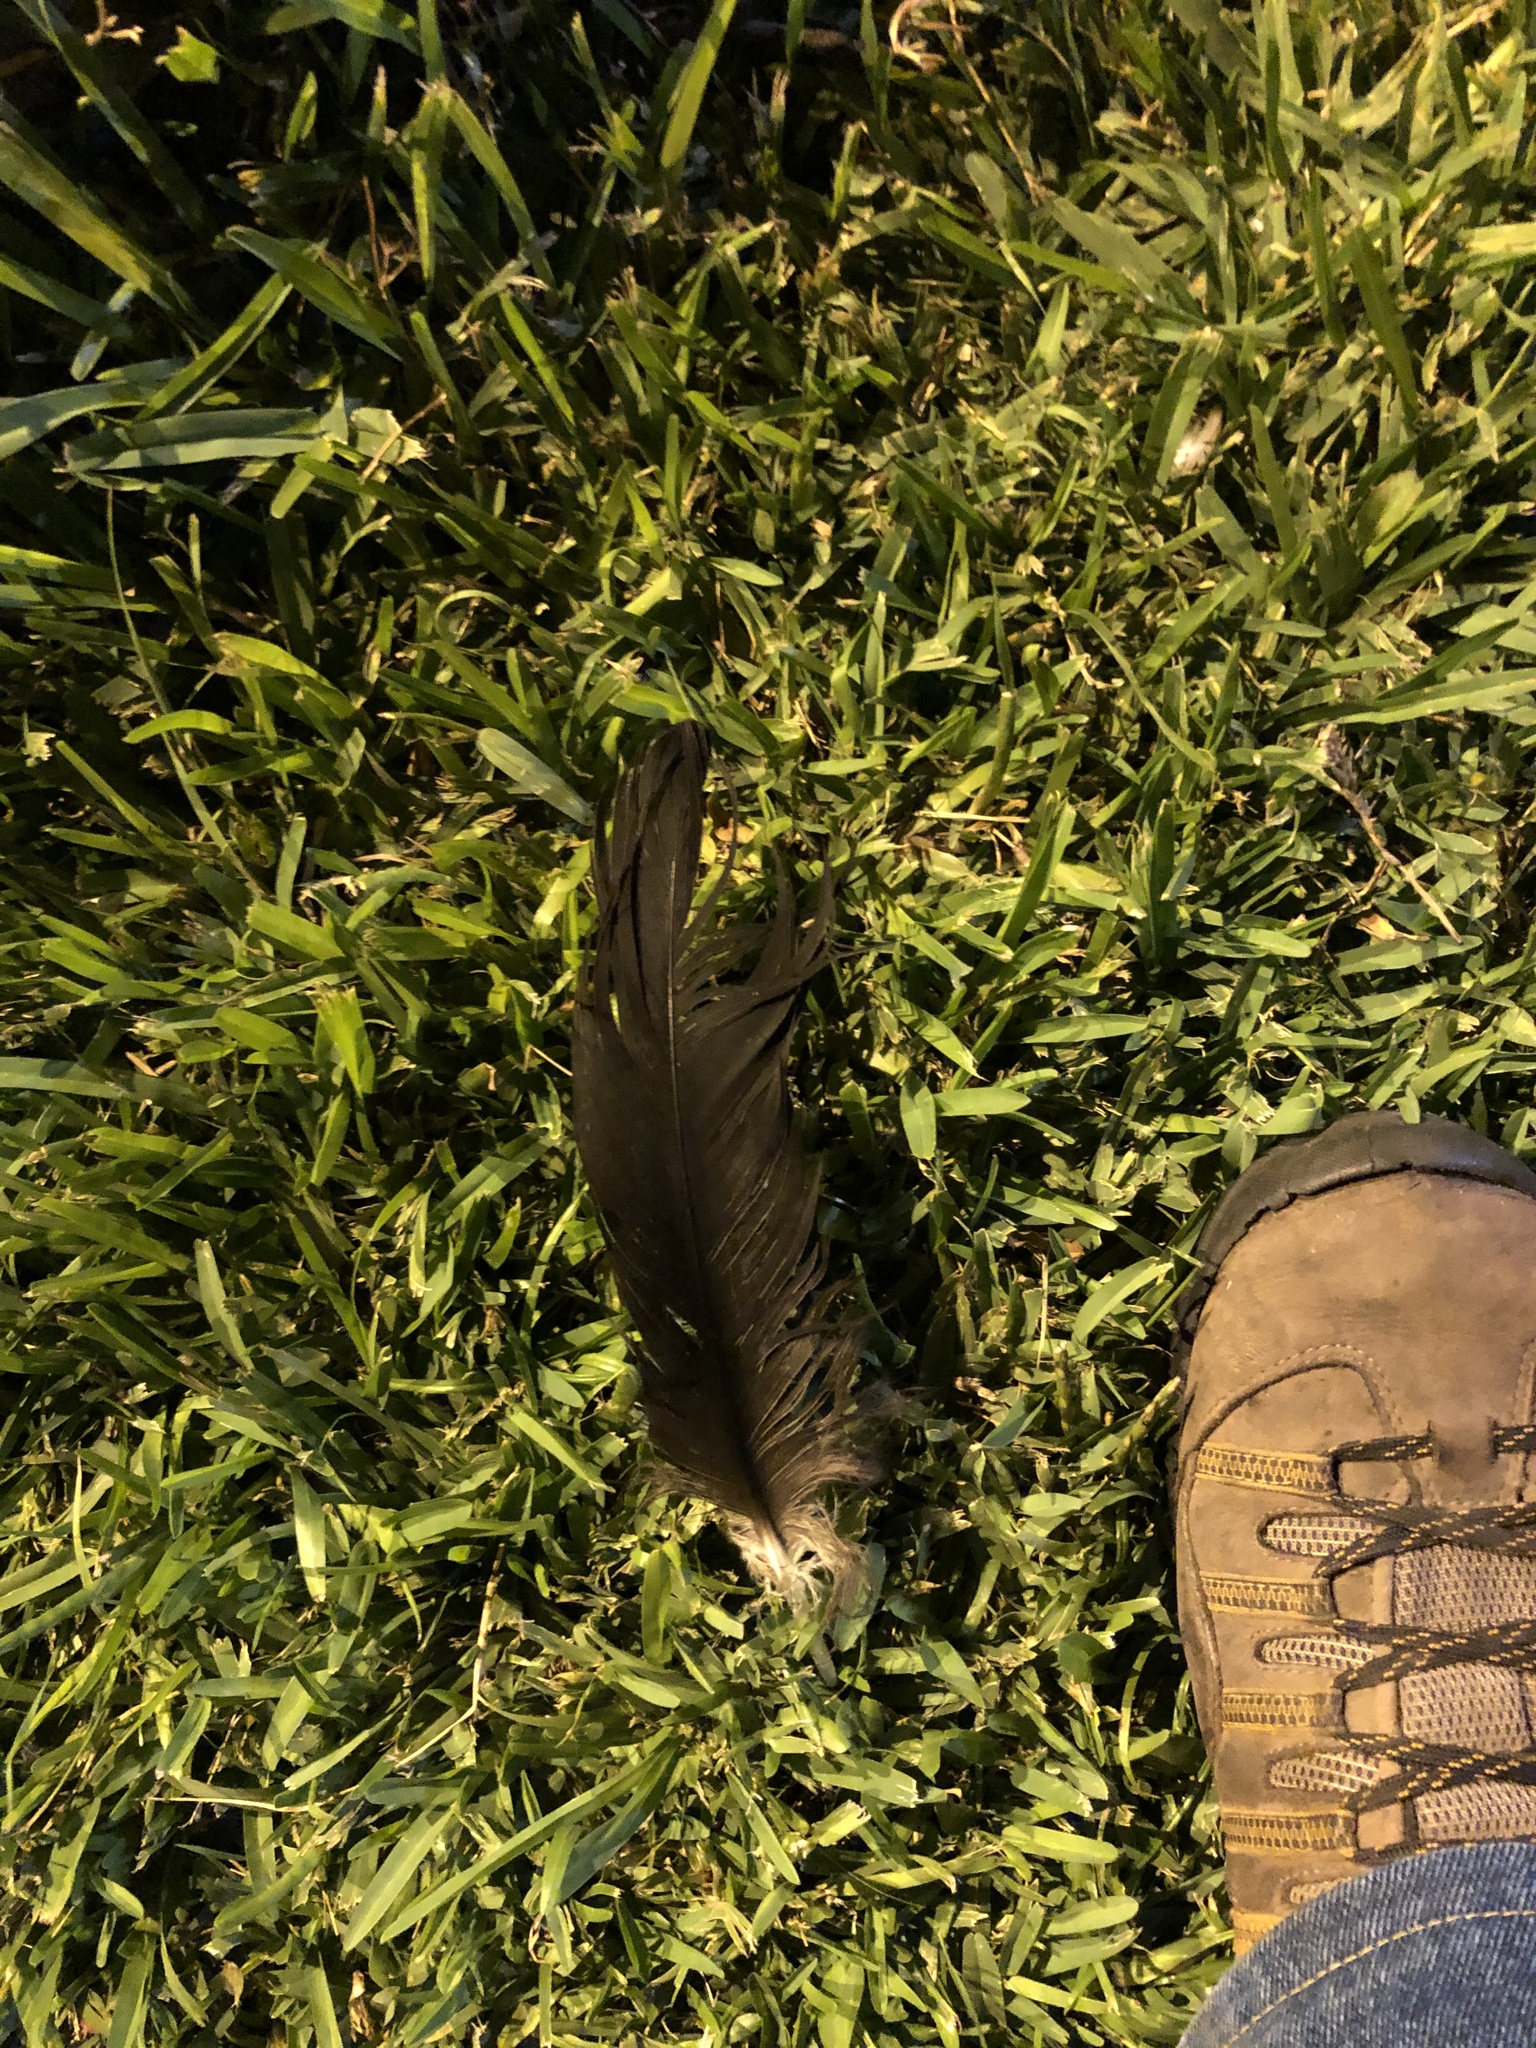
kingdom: Animalia
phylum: Chordata
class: Aves
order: Accipitriformes
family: Cathartidae
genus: Coragyps
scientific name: Coragyps atratus
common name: Black vulture
